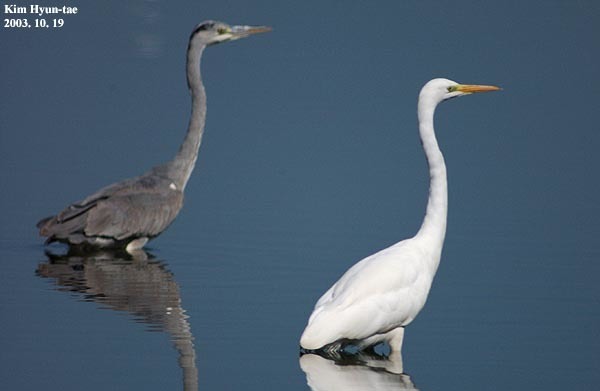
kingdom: Animalia
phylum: Chordata
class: Aves
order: Pelecaniformes
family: Ardeidae
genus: Ardea
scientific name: Ardea alba
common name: Great egret
